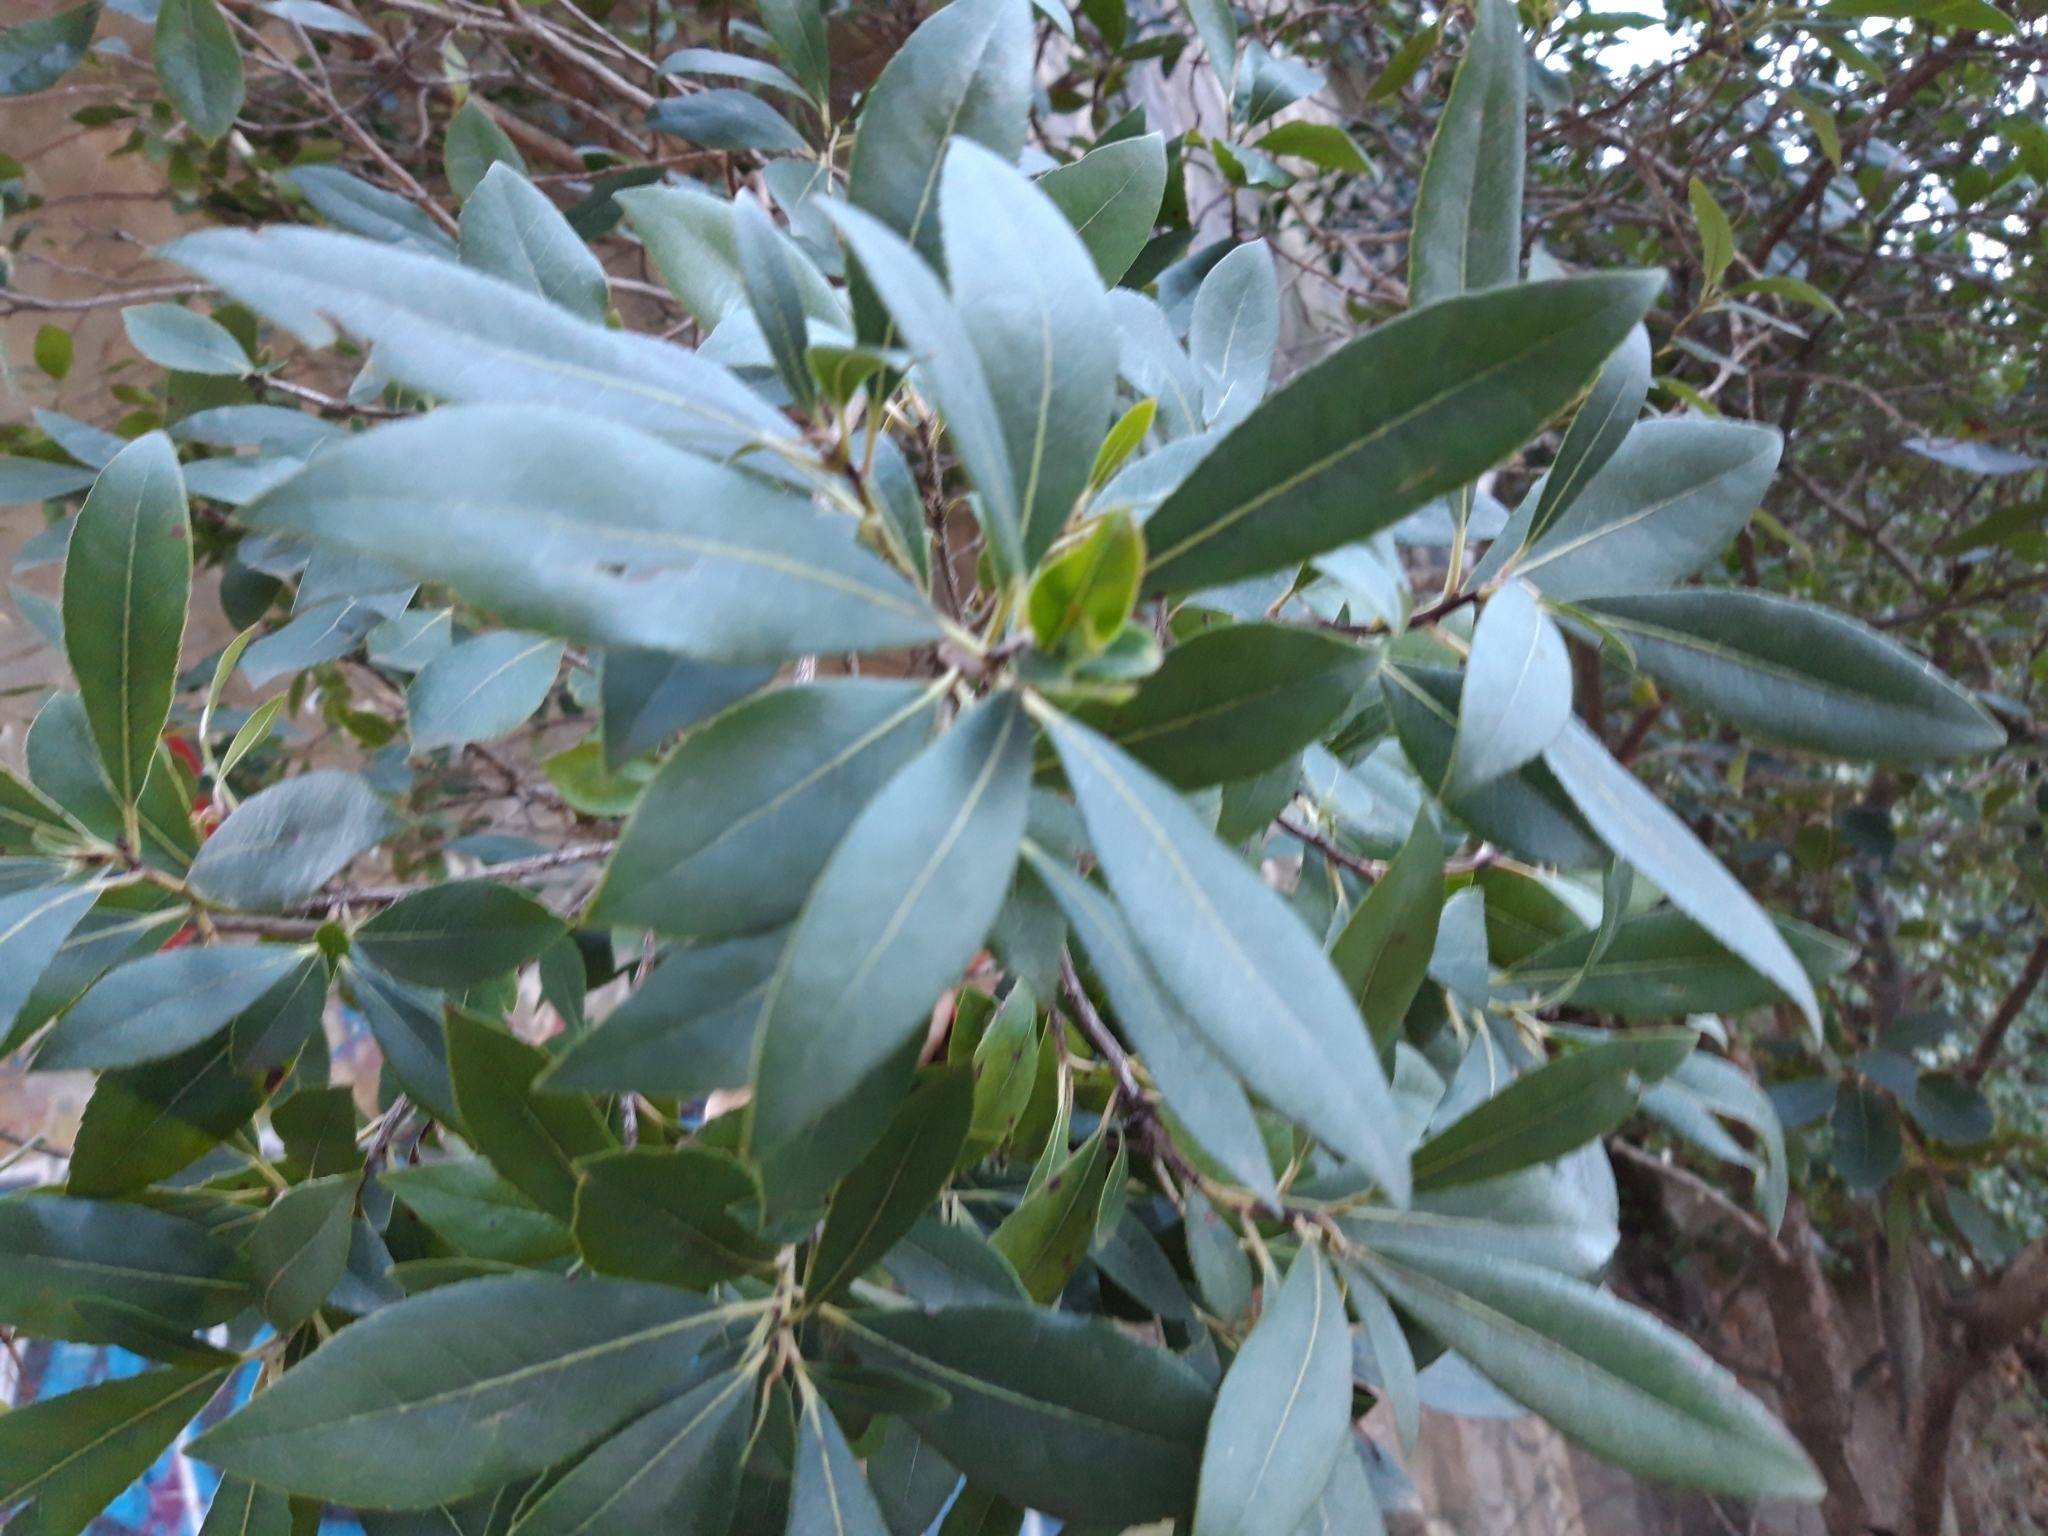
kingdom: Plantae
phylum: Tracheophyta
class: Magnoliopsida
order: Ericales
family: Ericaceae
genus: Arbutus
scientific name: Arbutus unedo
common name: Strawberry-tree
